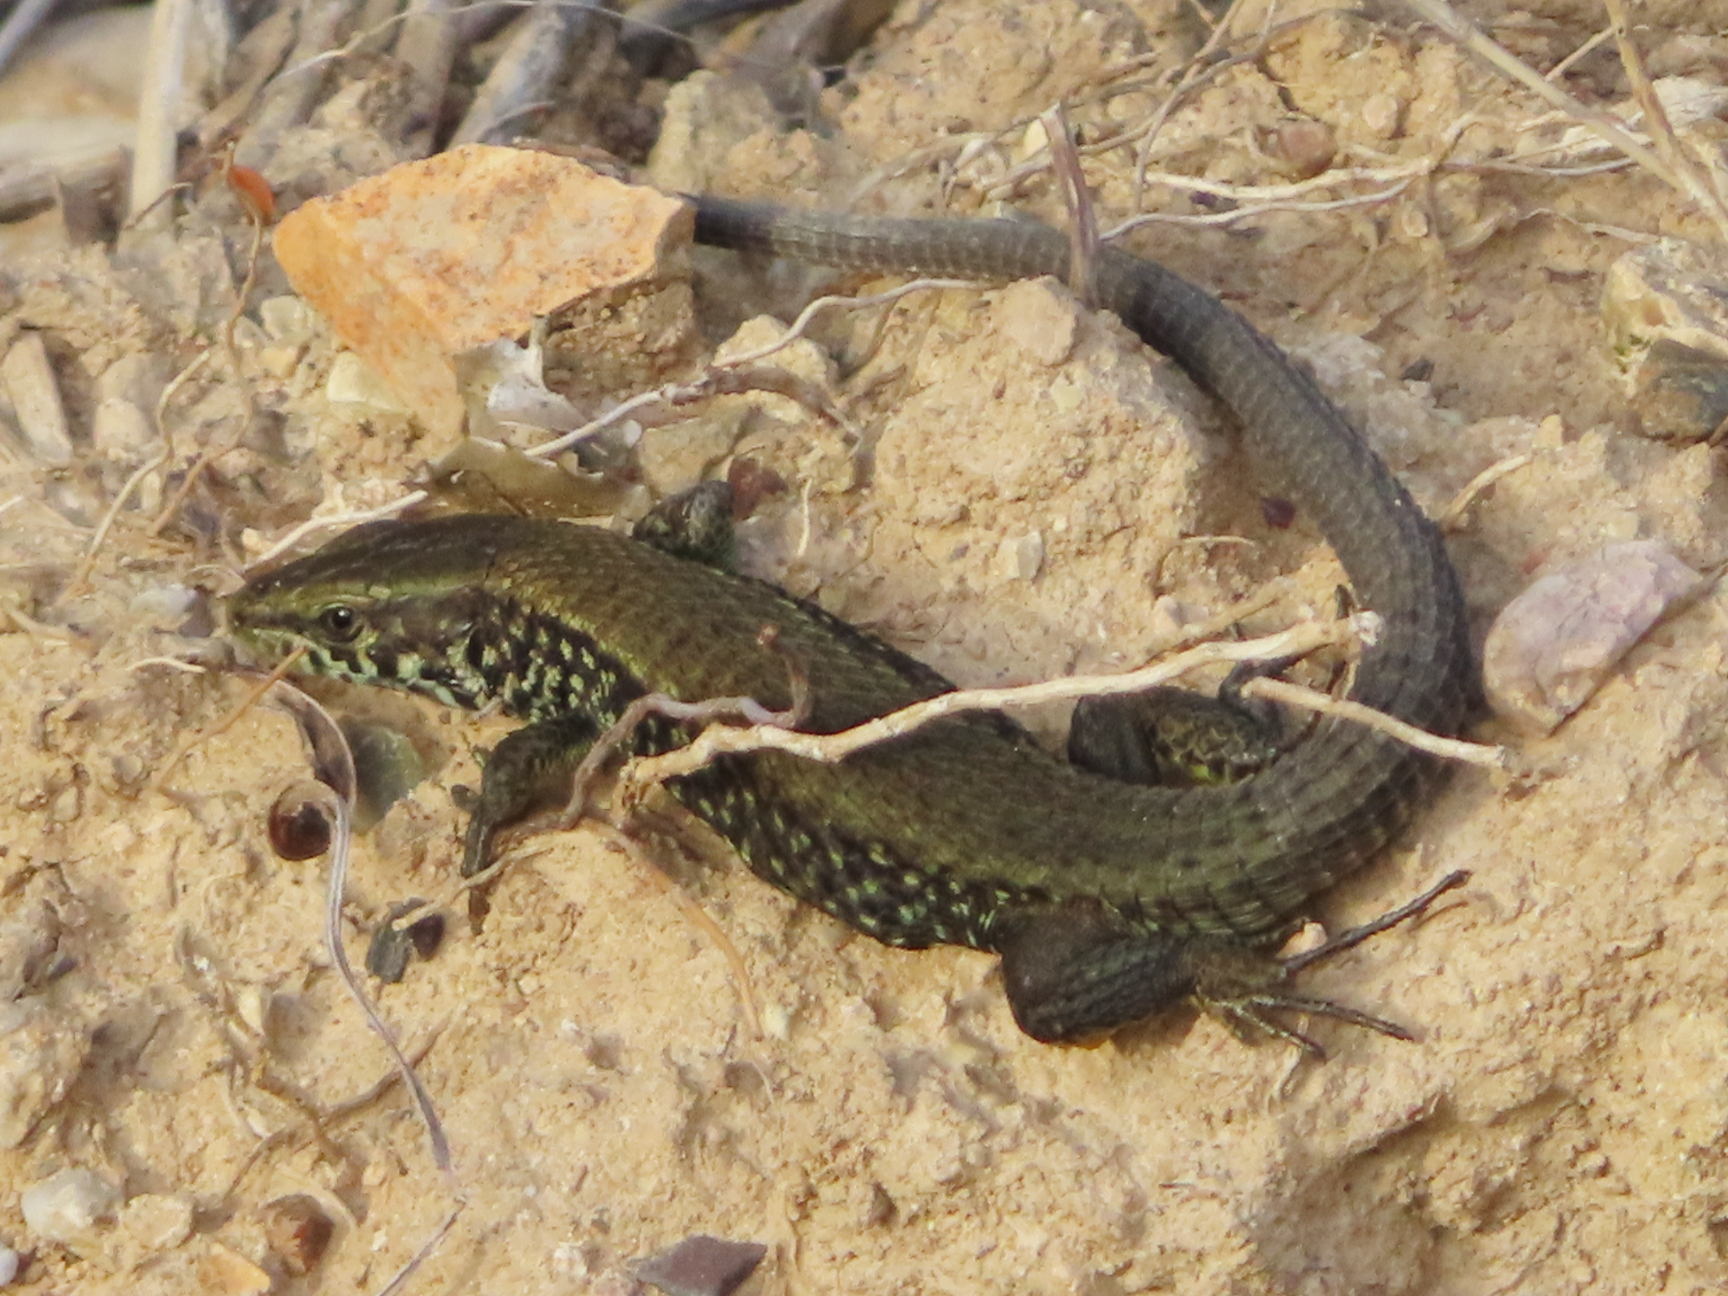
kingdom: Animalia
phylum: Chordata
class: Squamata
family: Lacertidae
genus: Algyroides
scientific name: Algyroides moreoticus
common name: Greek algyroides
